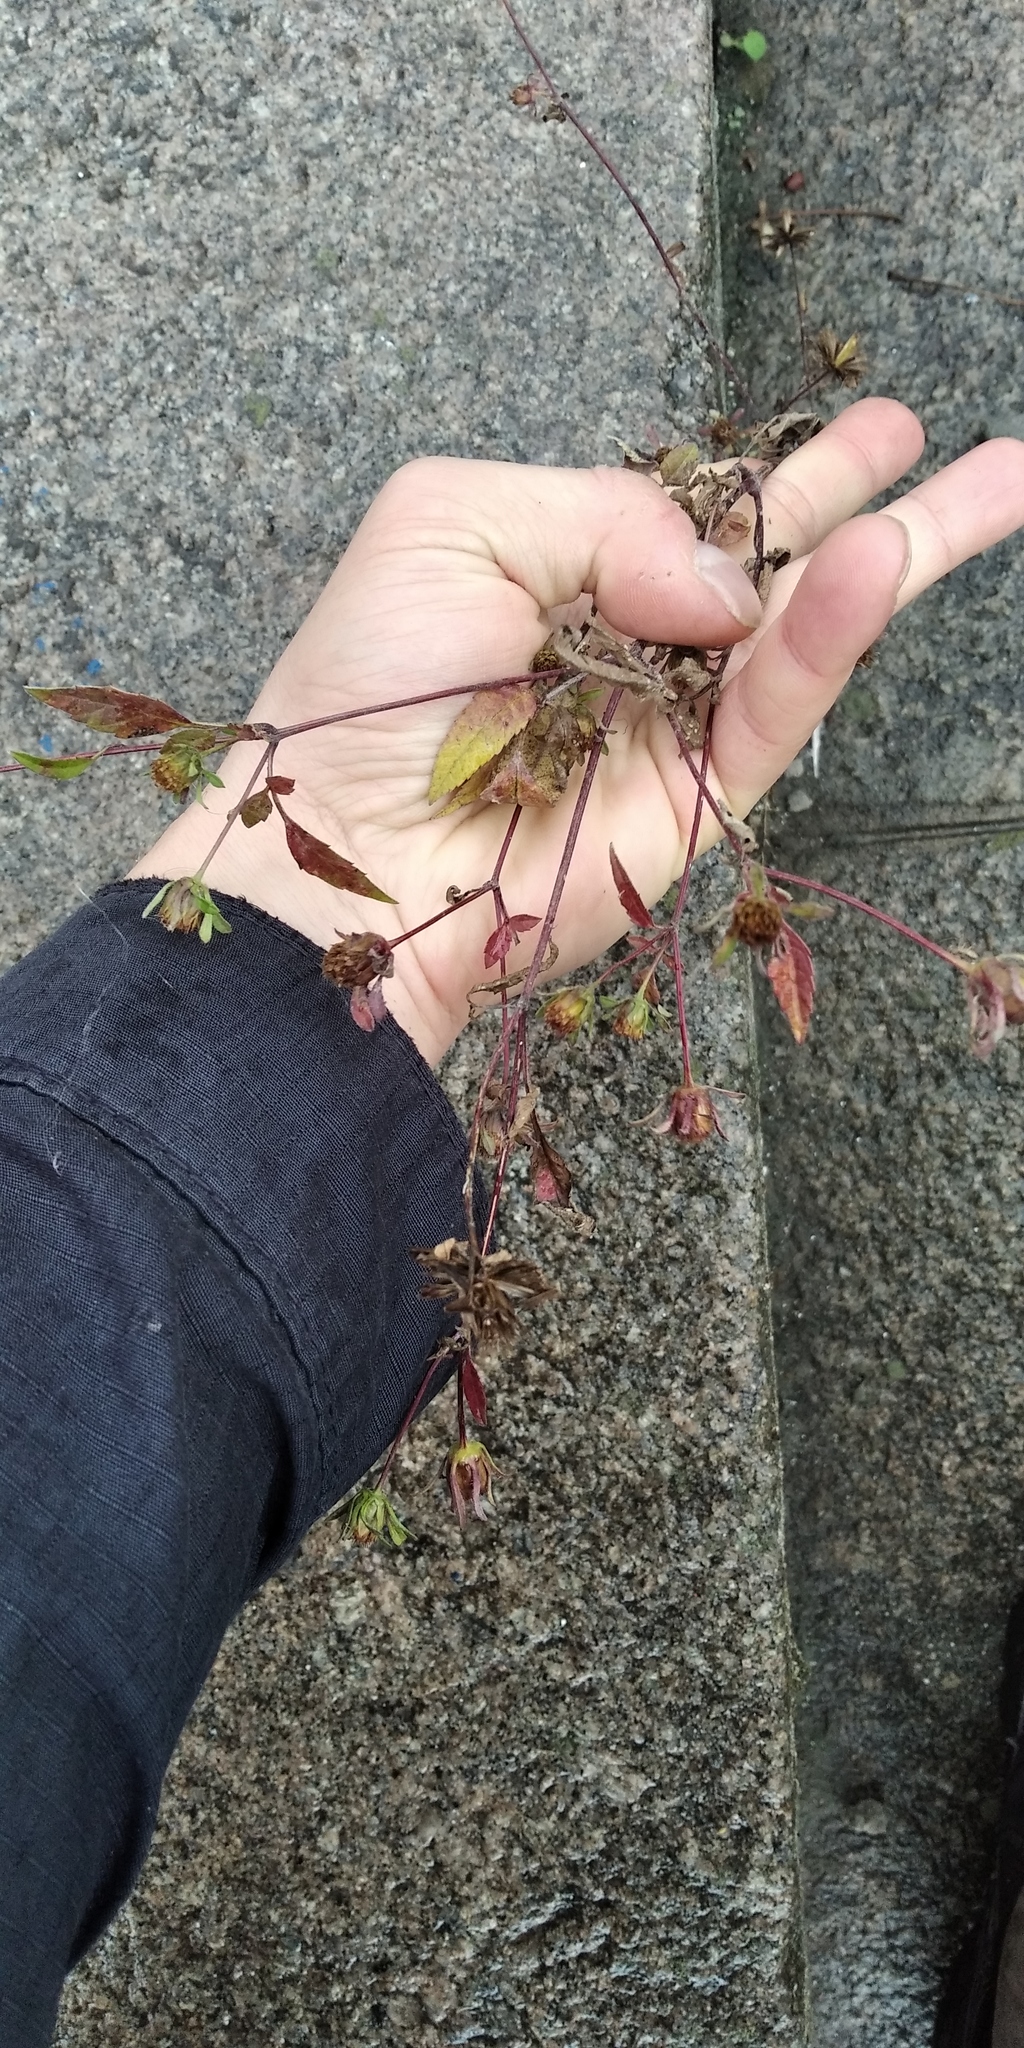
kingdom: Plantae
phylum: Tracheophyta
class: Magnoliopsida
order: Asterales
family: Asteraceae
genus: Bidens
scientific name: Bidens frondosa
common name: Beggarticks
